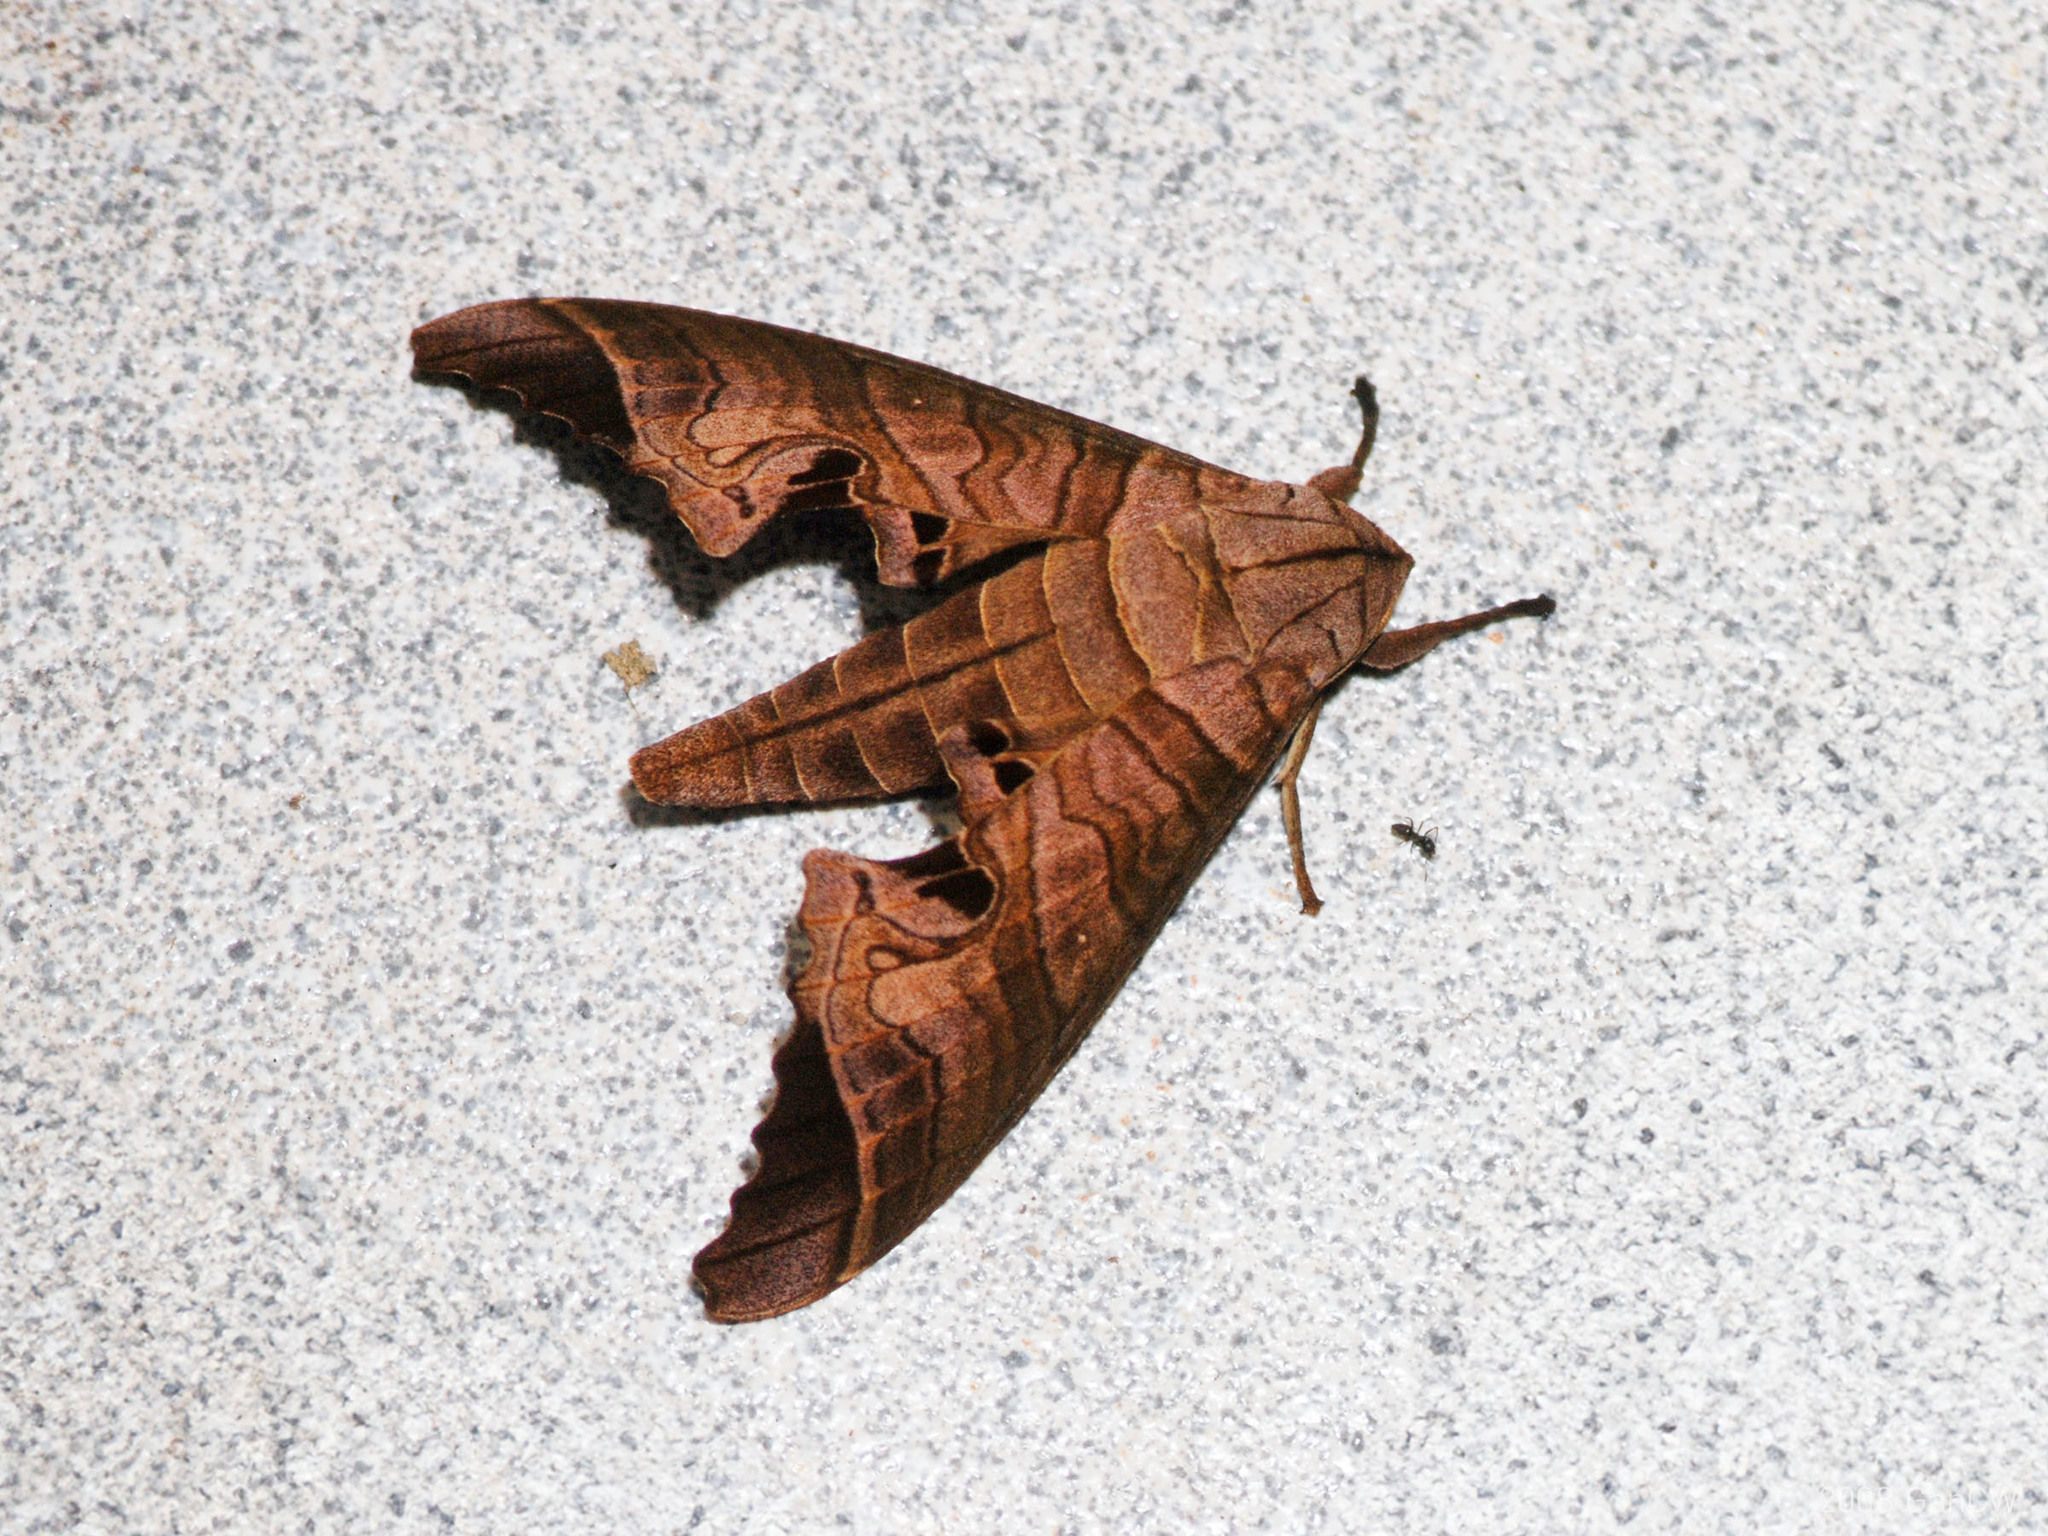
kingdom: Animalia
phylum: Arthropoda
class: Insecta
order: Lepidoptera
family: Sphingidae
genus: Marumba
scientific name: Marumba spectabilis
